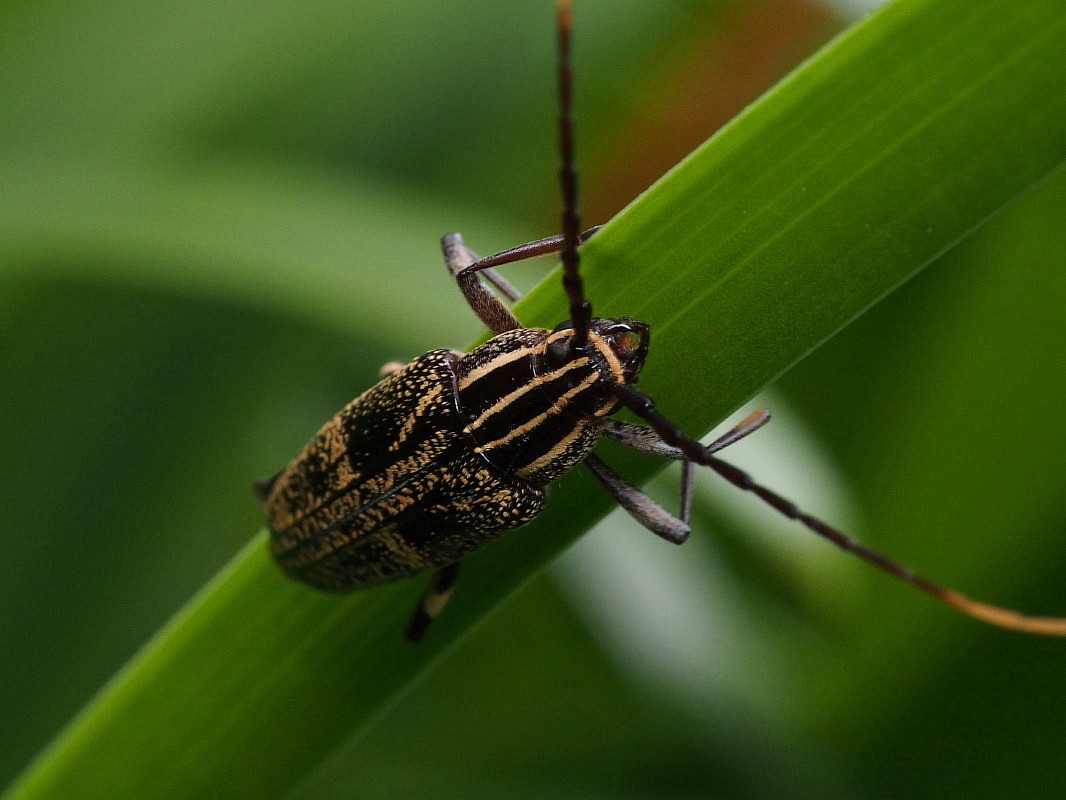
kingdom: Animalia
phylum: Arthropoda
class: Insecta
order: Coleoptera
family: Cerambycidae
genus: Coptomma
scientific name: Coptomma variegatum
